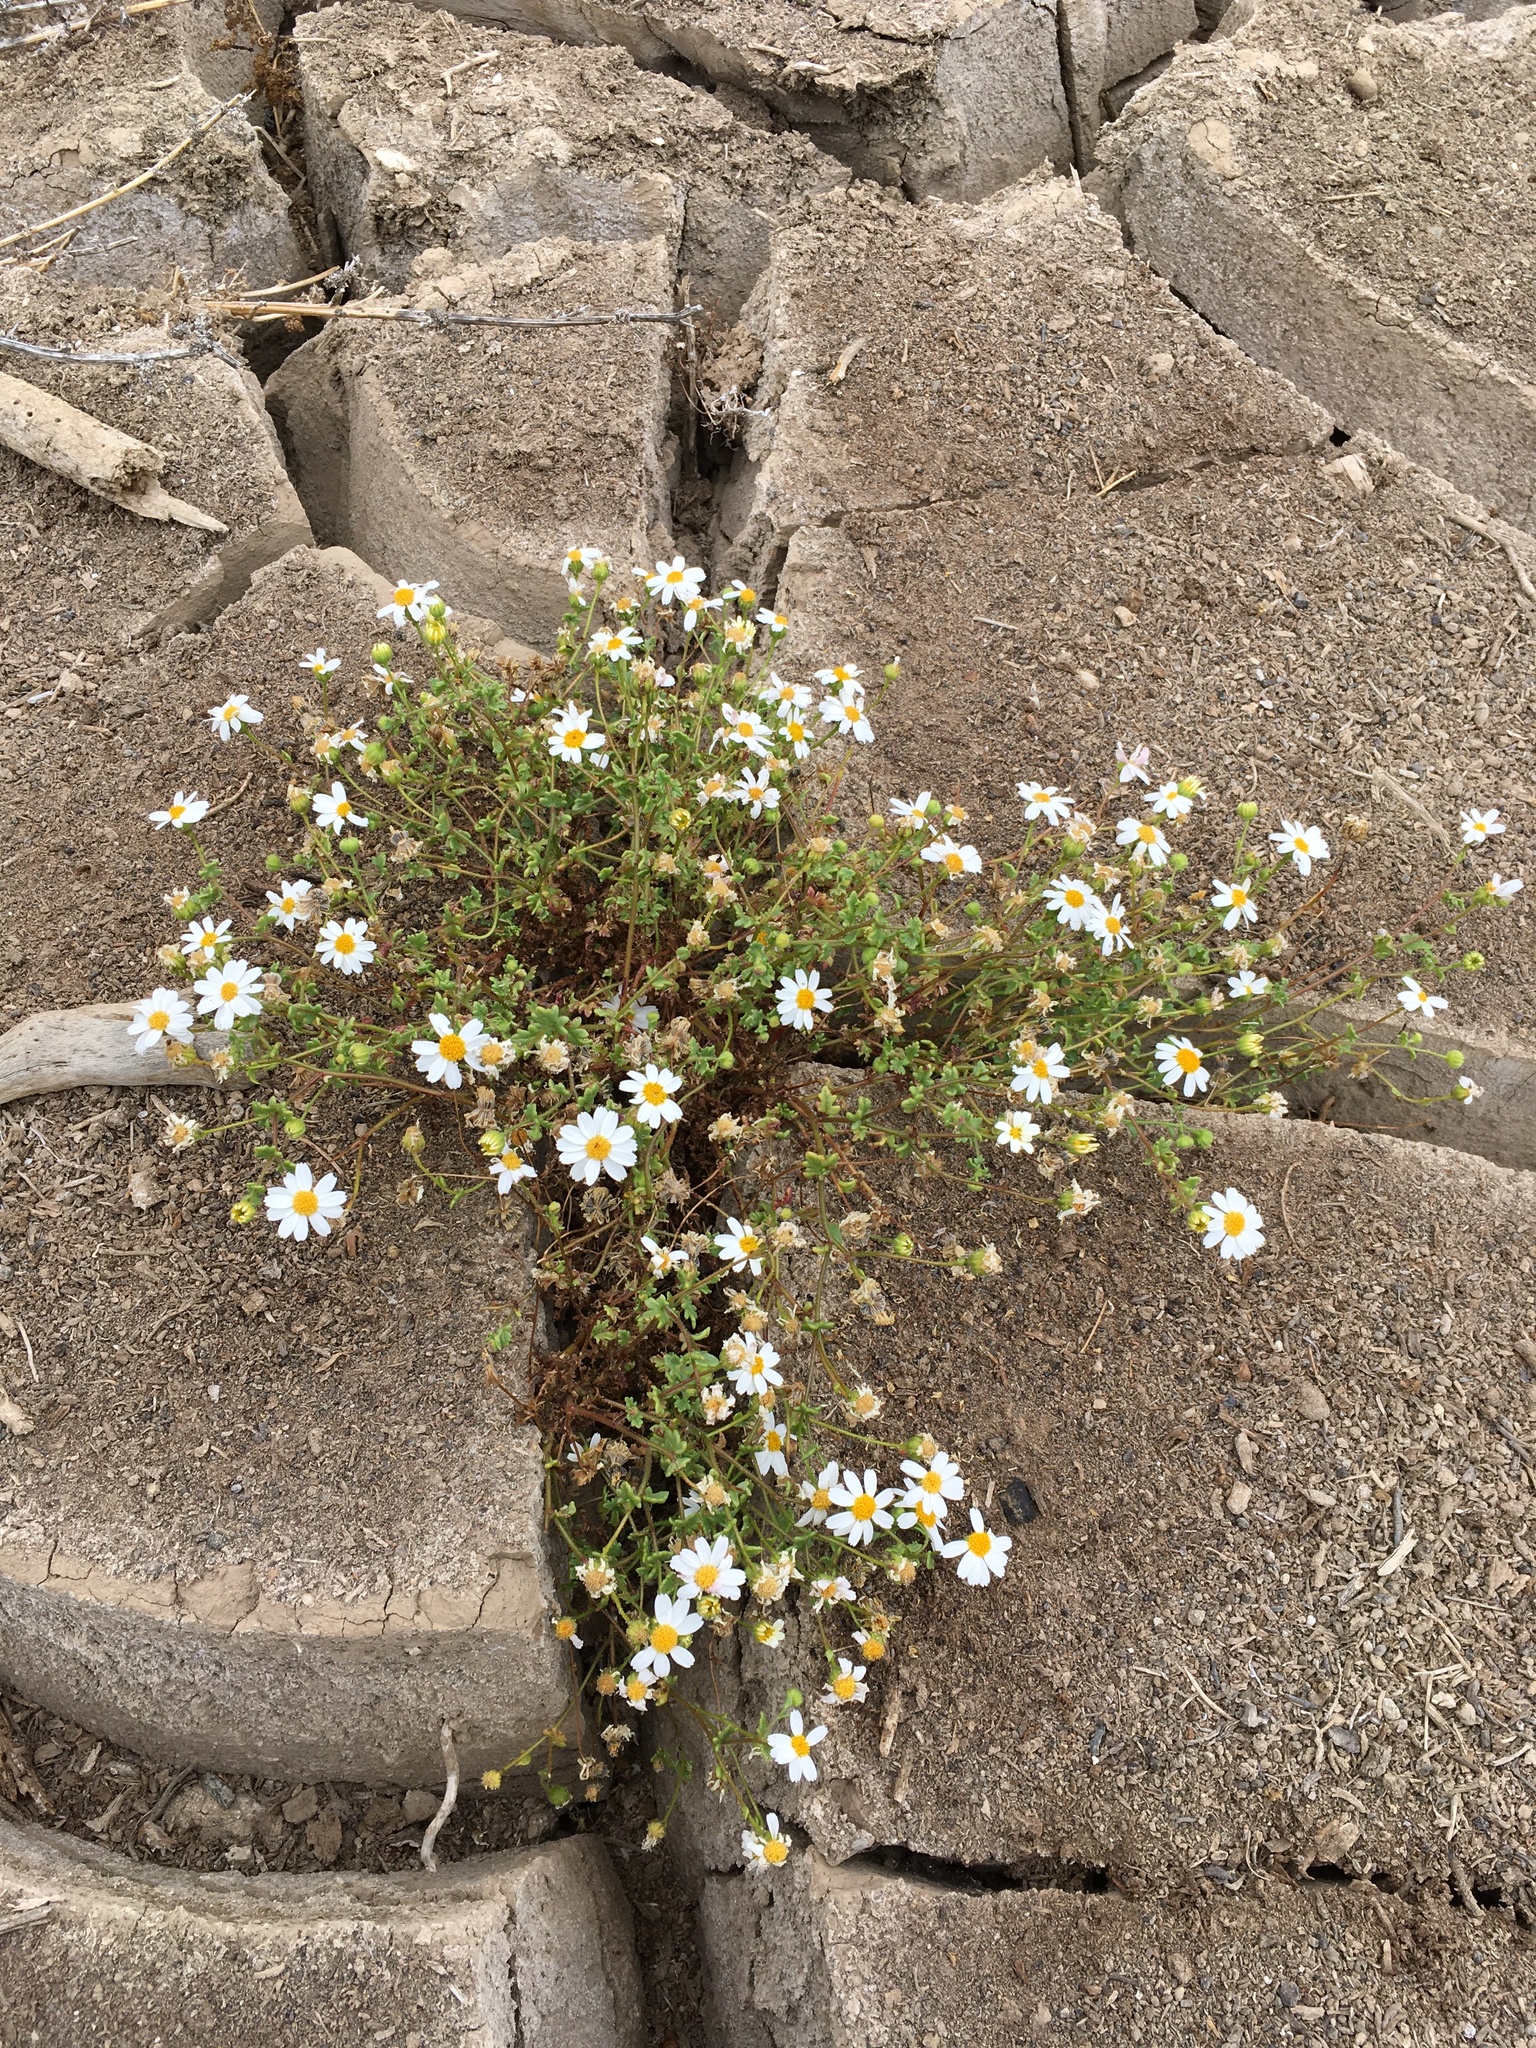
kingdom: Plantae
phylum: Tracheophyta
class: Magnoliopsida
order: Asterales
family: Asteraceae
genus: Laphamia
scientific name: Laphamia emoryi
